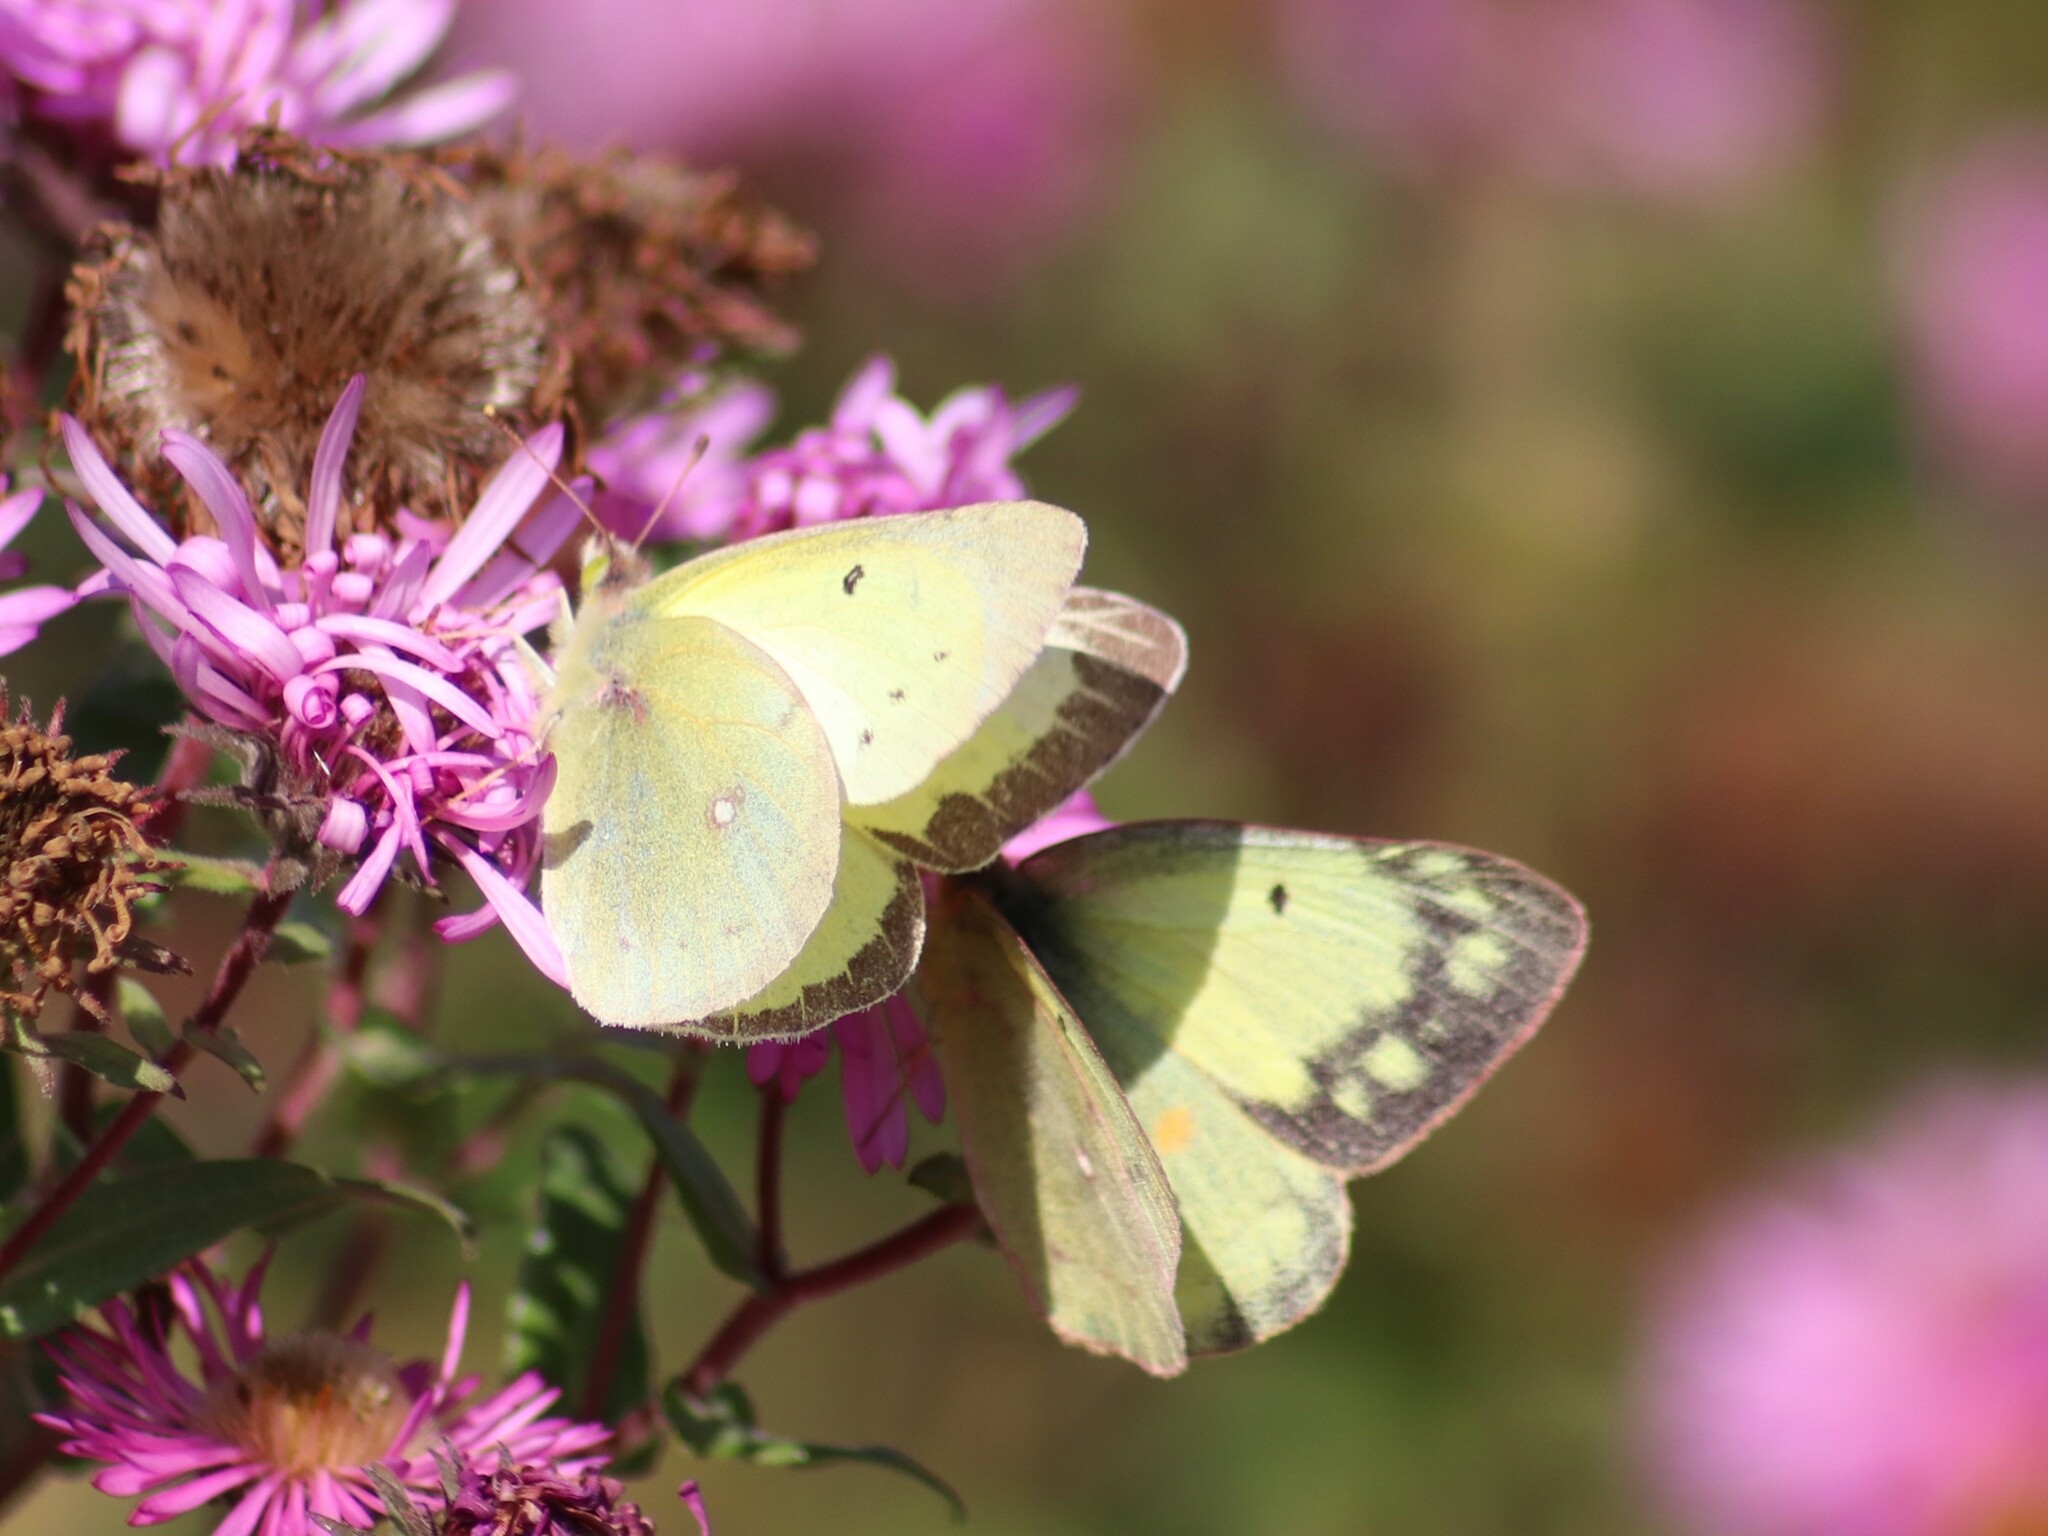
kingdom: Animalia
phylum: Arthropoda
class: Insecta
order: Lepidoptera
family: Pieridae
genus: Colias
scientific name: Colias philodice
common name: Clouded sulphur
